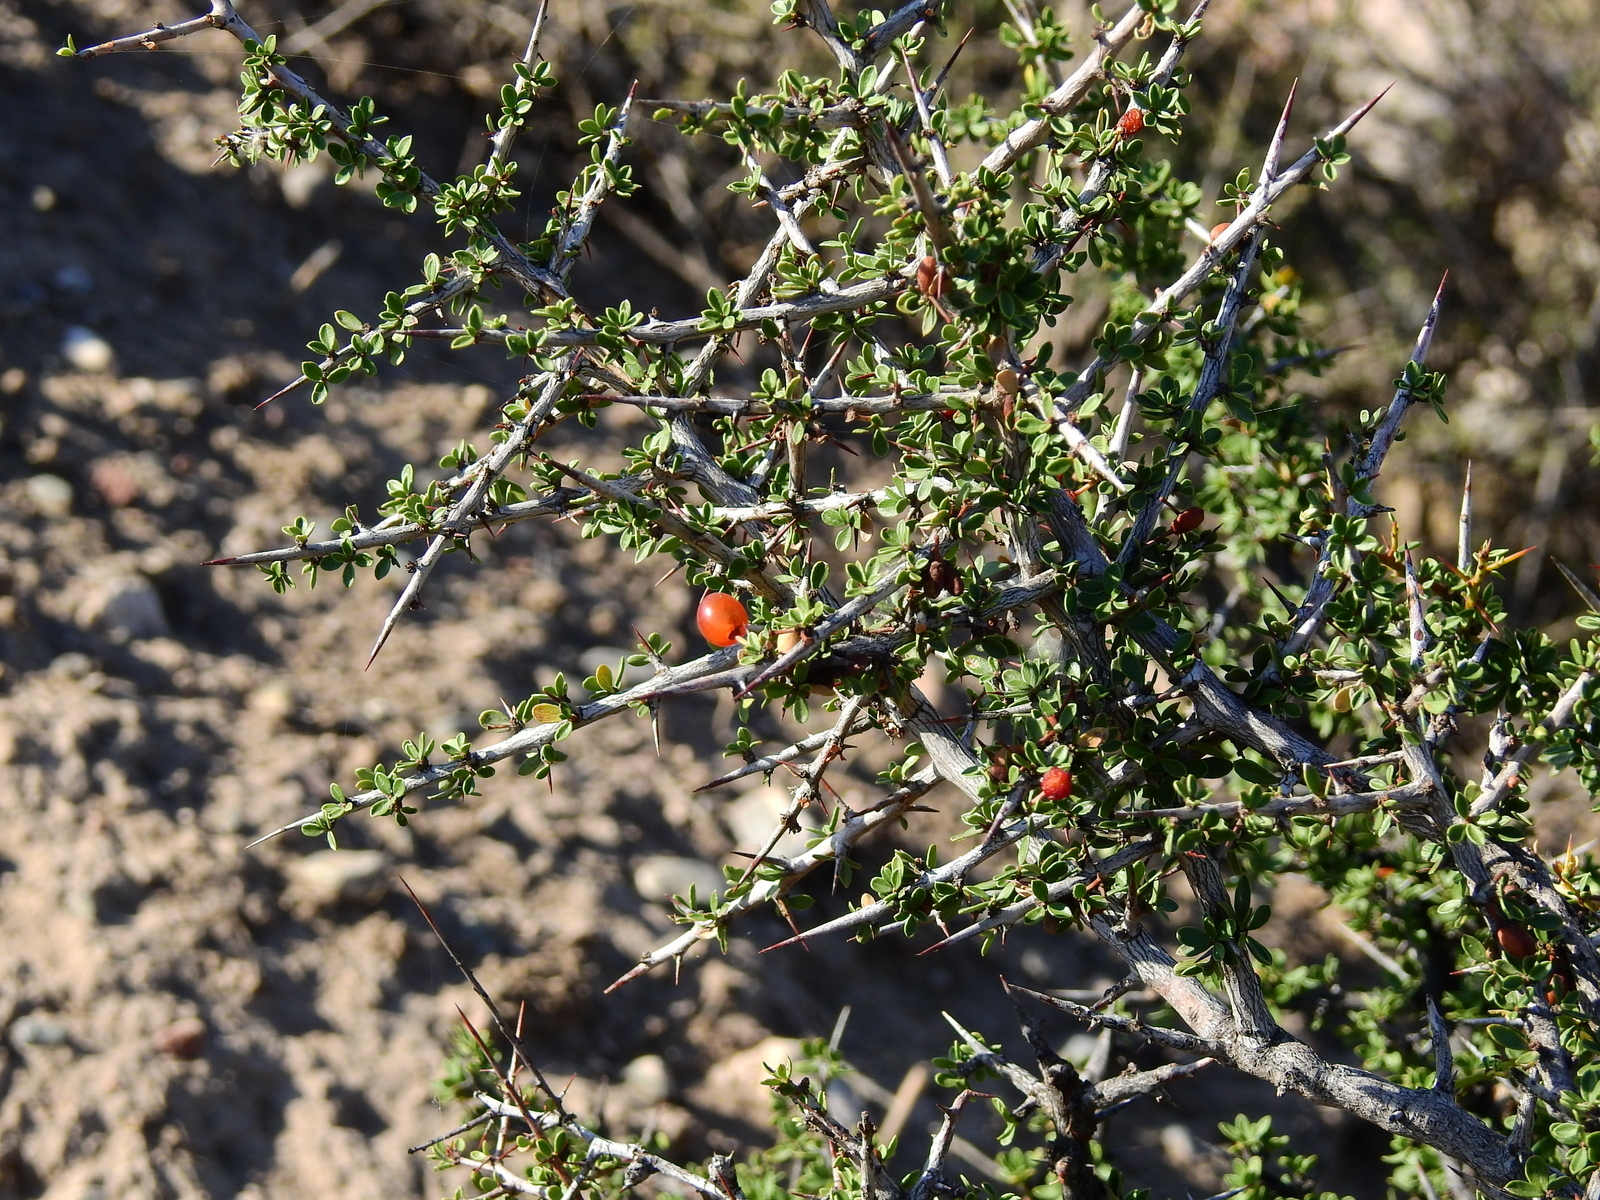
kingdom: Plantae
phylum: Tracheophyta
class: Magnoliopsida
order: Rosales
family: Rhamnaceae
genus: Condalia
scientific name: Condalia microphylla
